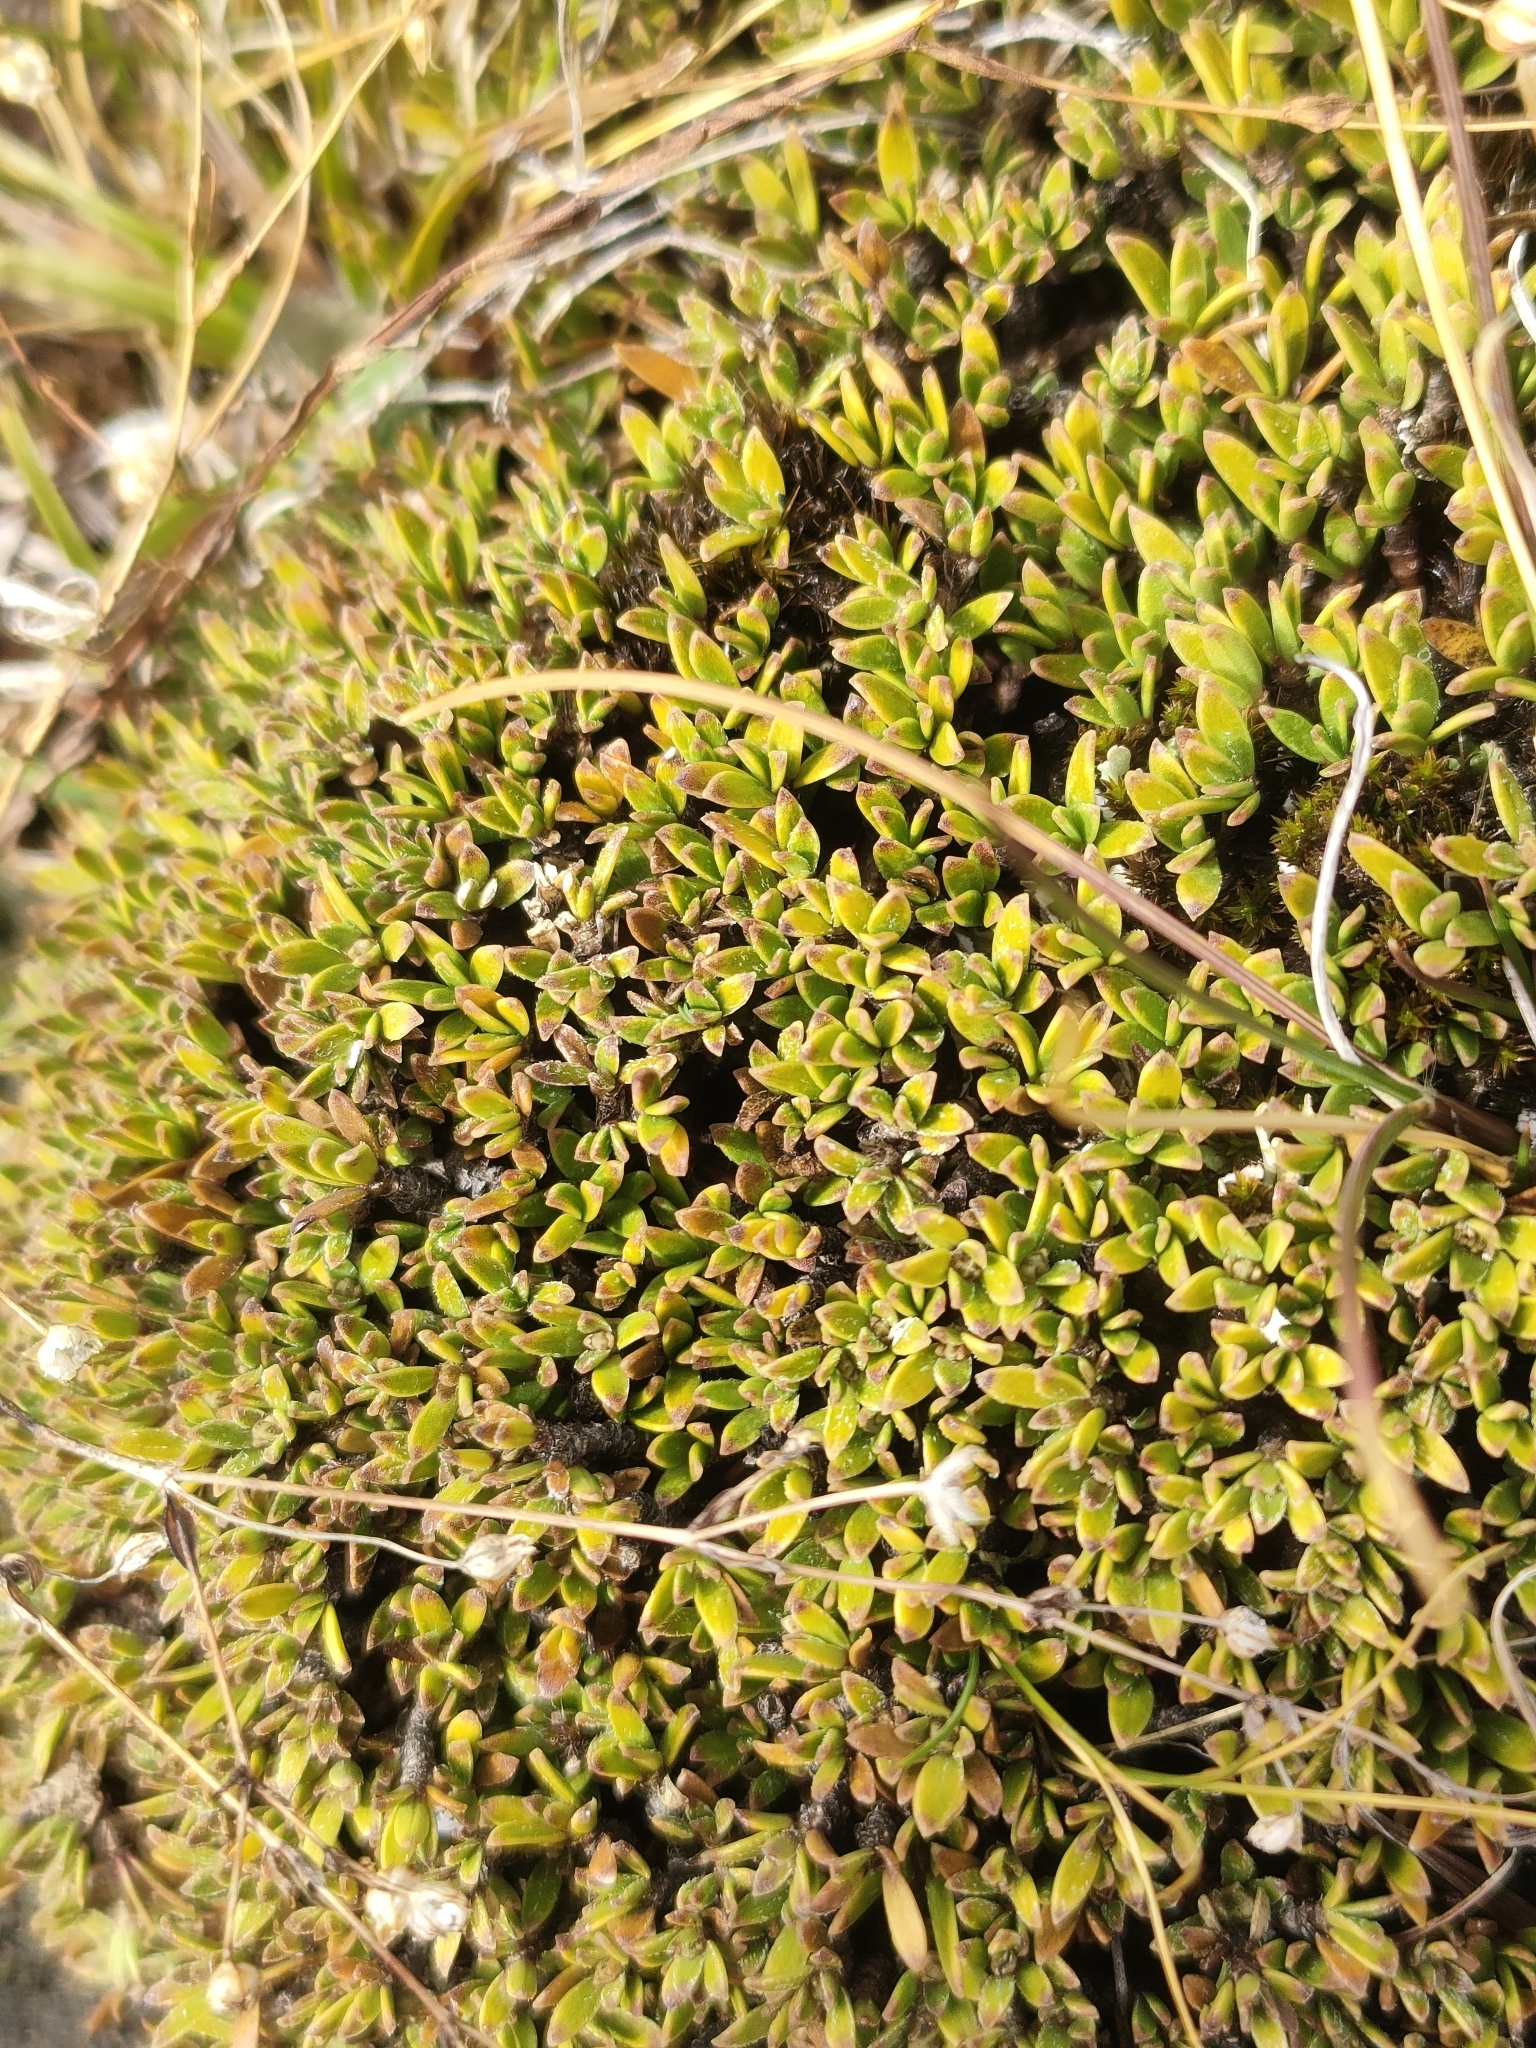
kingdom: Plantae
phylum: Tracheophyta
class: Magnoliopsida
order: Gentianales
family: Rubiaceae
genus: Coprosma
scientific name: Coprosma petriei
